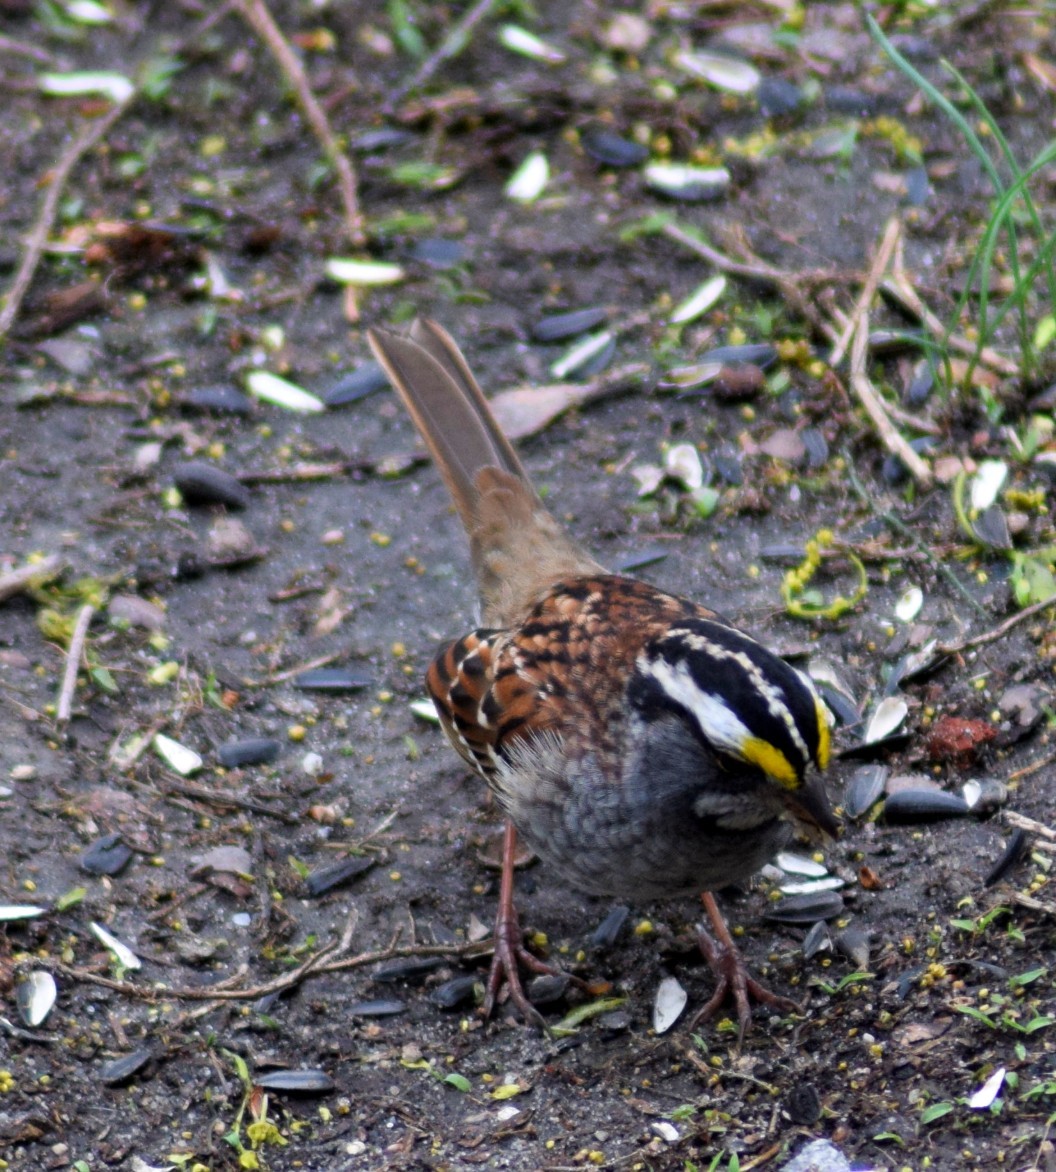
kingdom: Animalia
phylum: Chordata
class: Aves
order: Passeriformes
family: Passerellidae
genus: Zonotrichia
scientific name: Zonotrichia albicollis
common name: White-throated sparrow
